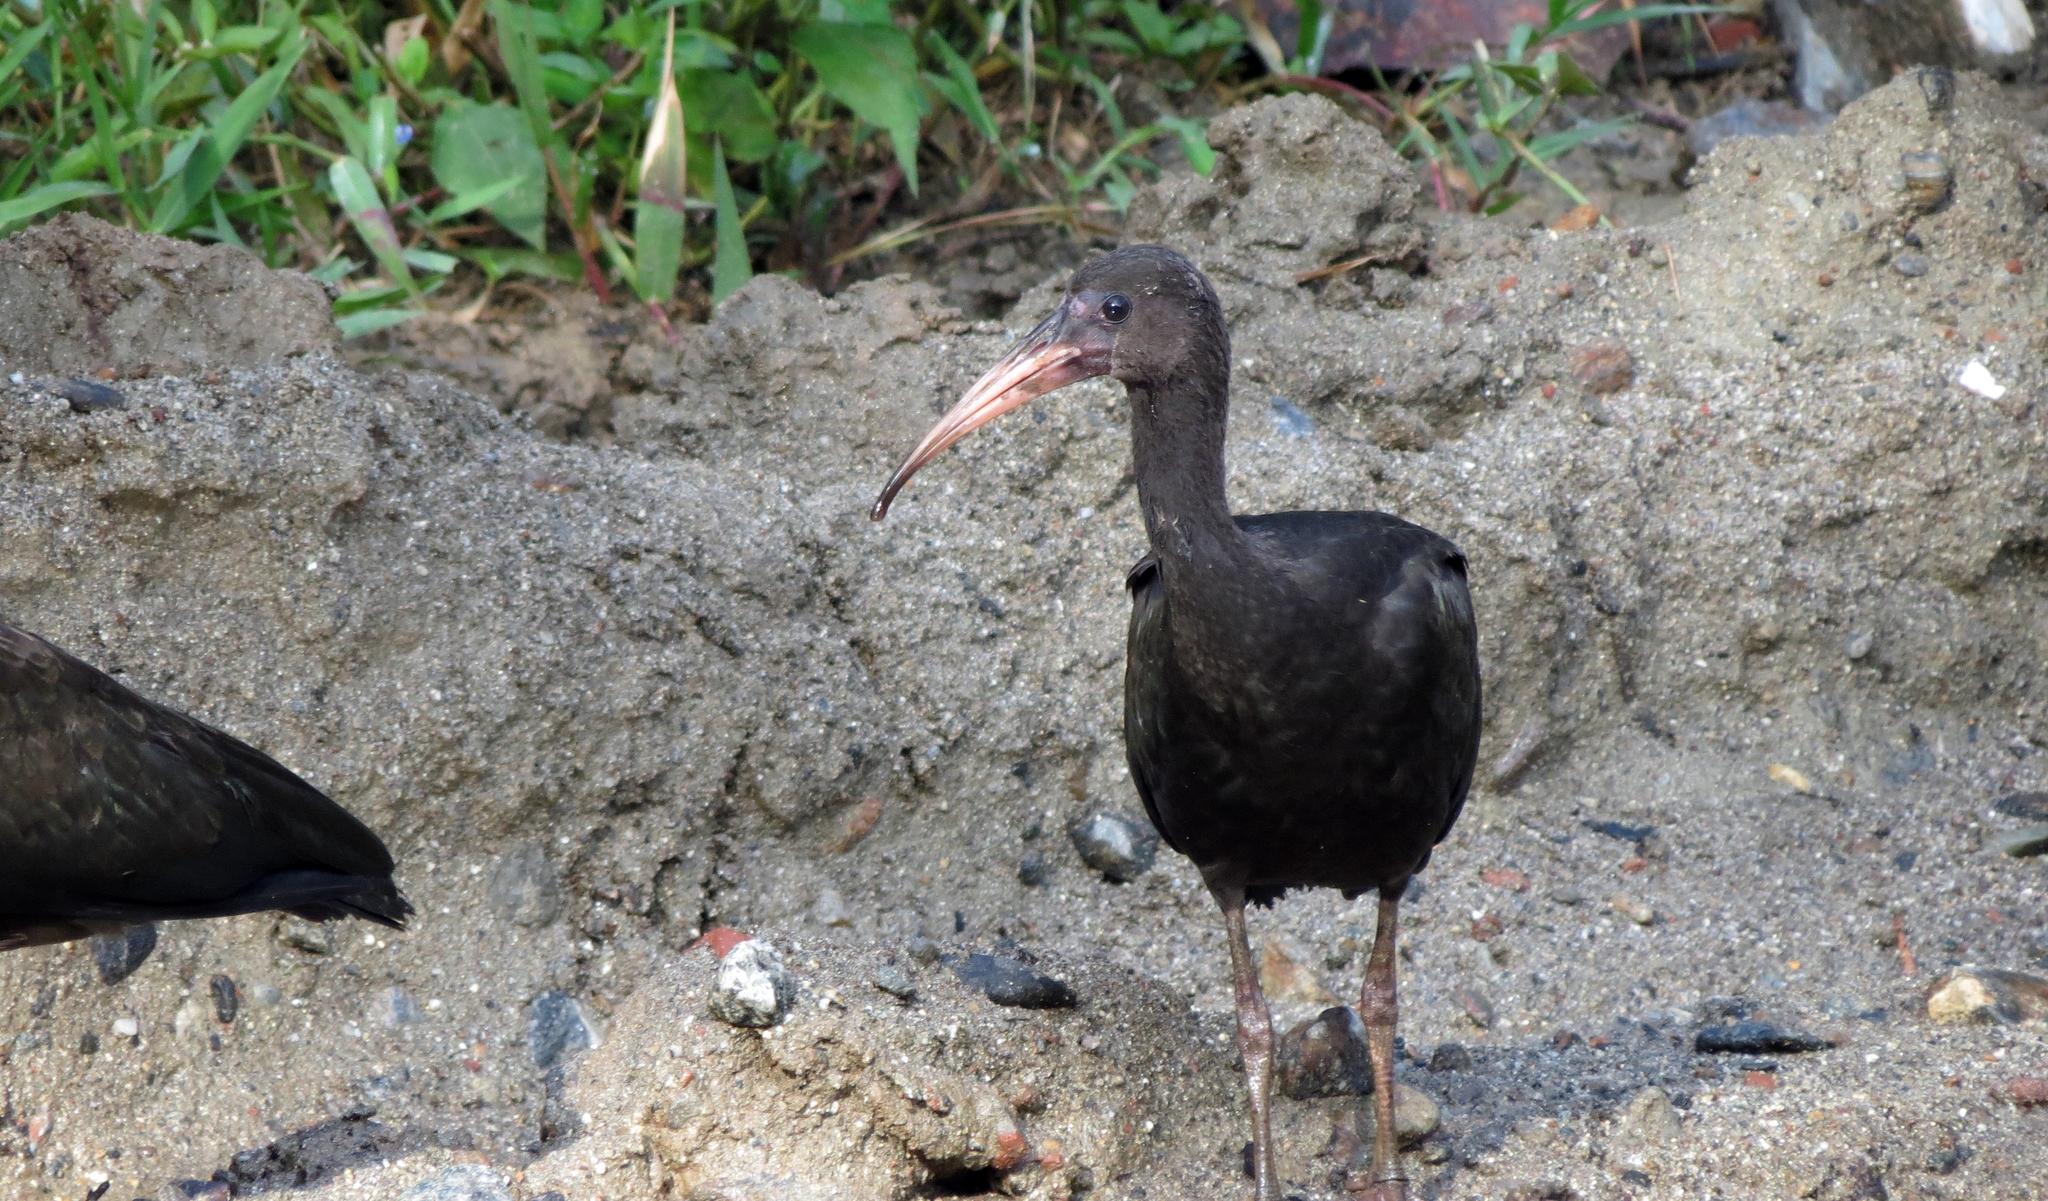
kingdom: Animalia
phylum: Chordata
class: Aves
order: Pelecaniformes
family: Threskiornithidae
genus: Phimosus
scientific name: Phimosus infuscatus
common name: Bare-faced ibis
